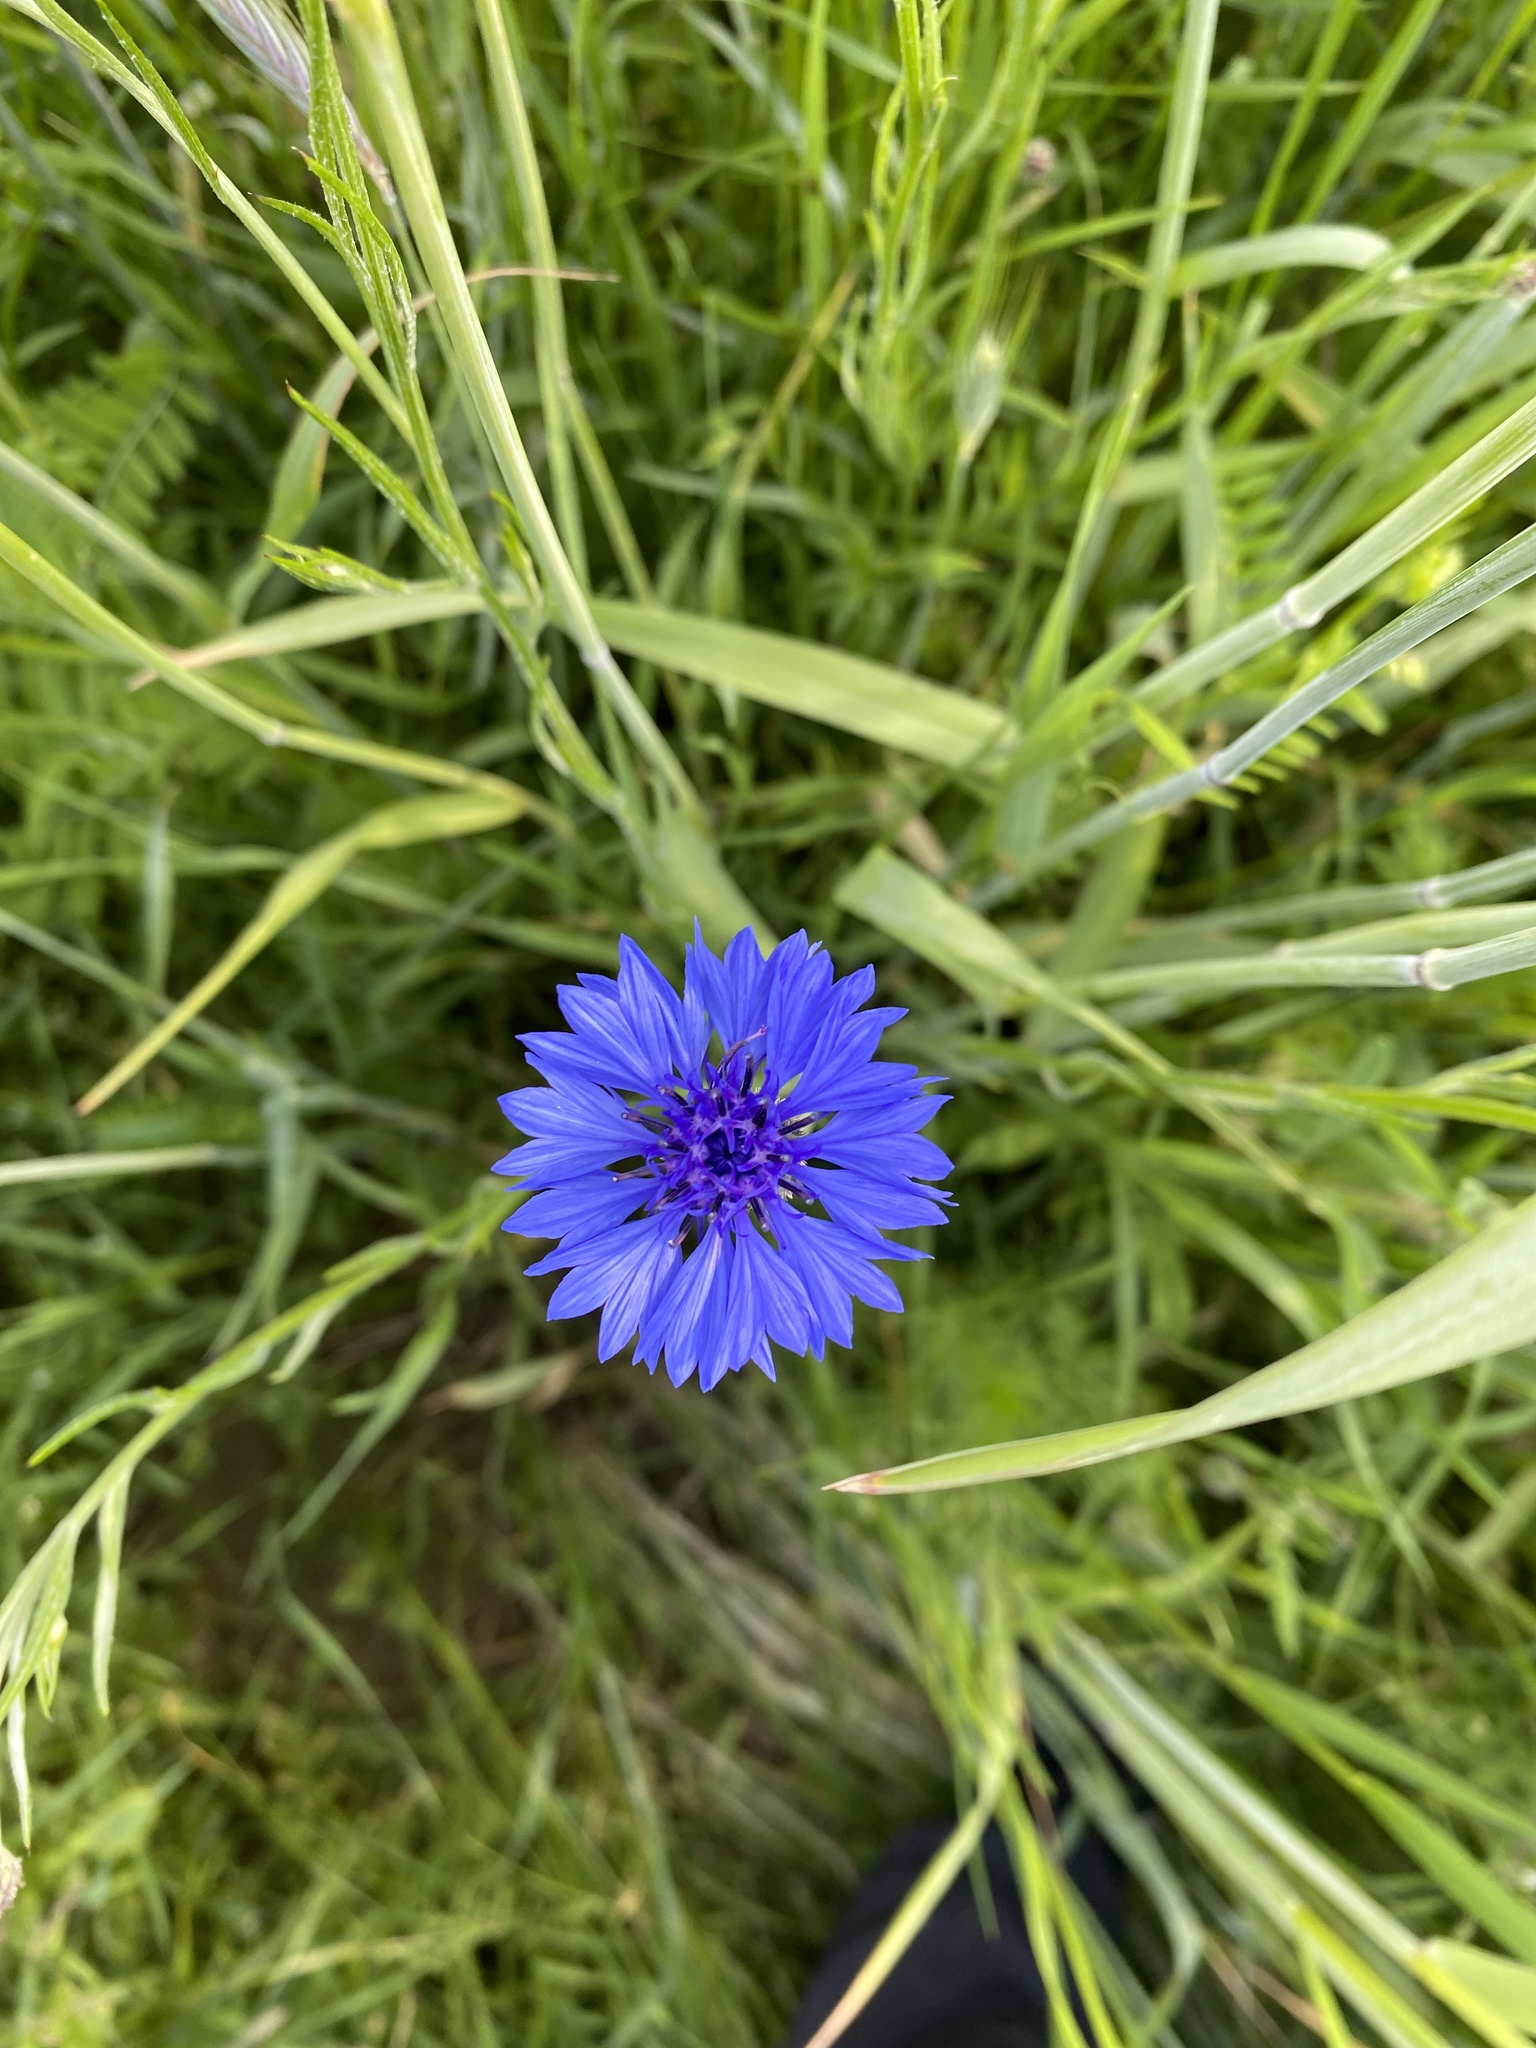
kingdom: Plantae
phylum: Tracheophyta
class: Magnoliopsida
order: Asterales
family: Asteraceae
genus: Centaurea
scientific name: Centaurea cyanus
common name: Cornflower
